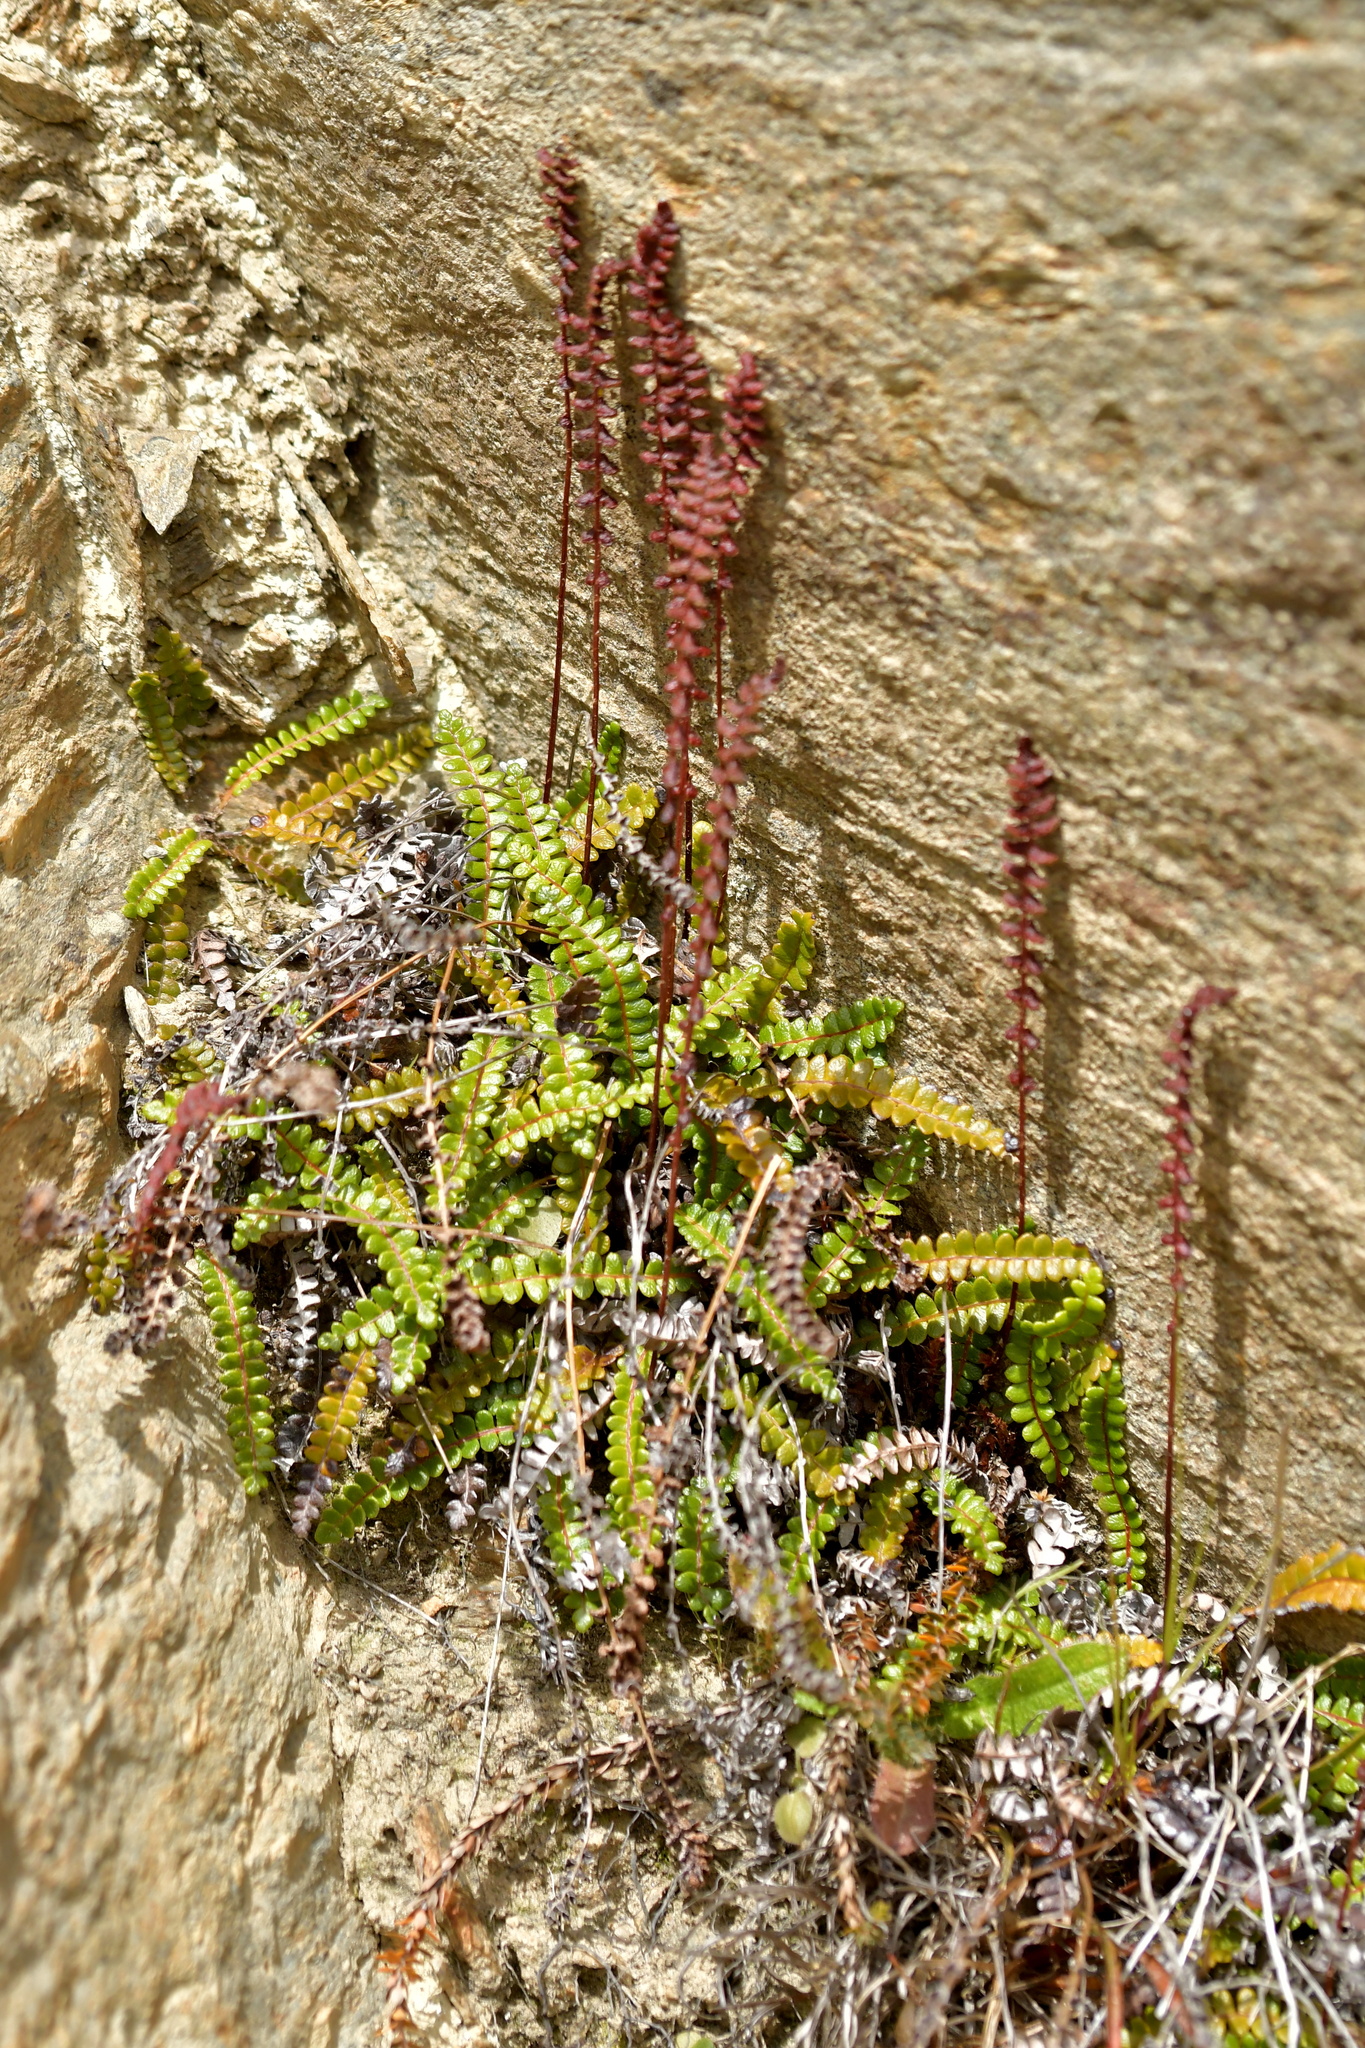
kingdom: Plantae
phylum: Tracheophyta
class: Polypodiopsida
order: Polypodiales
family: Blechnaceae
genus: Austroblechnum
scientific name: Austroblechnum penna-marina
